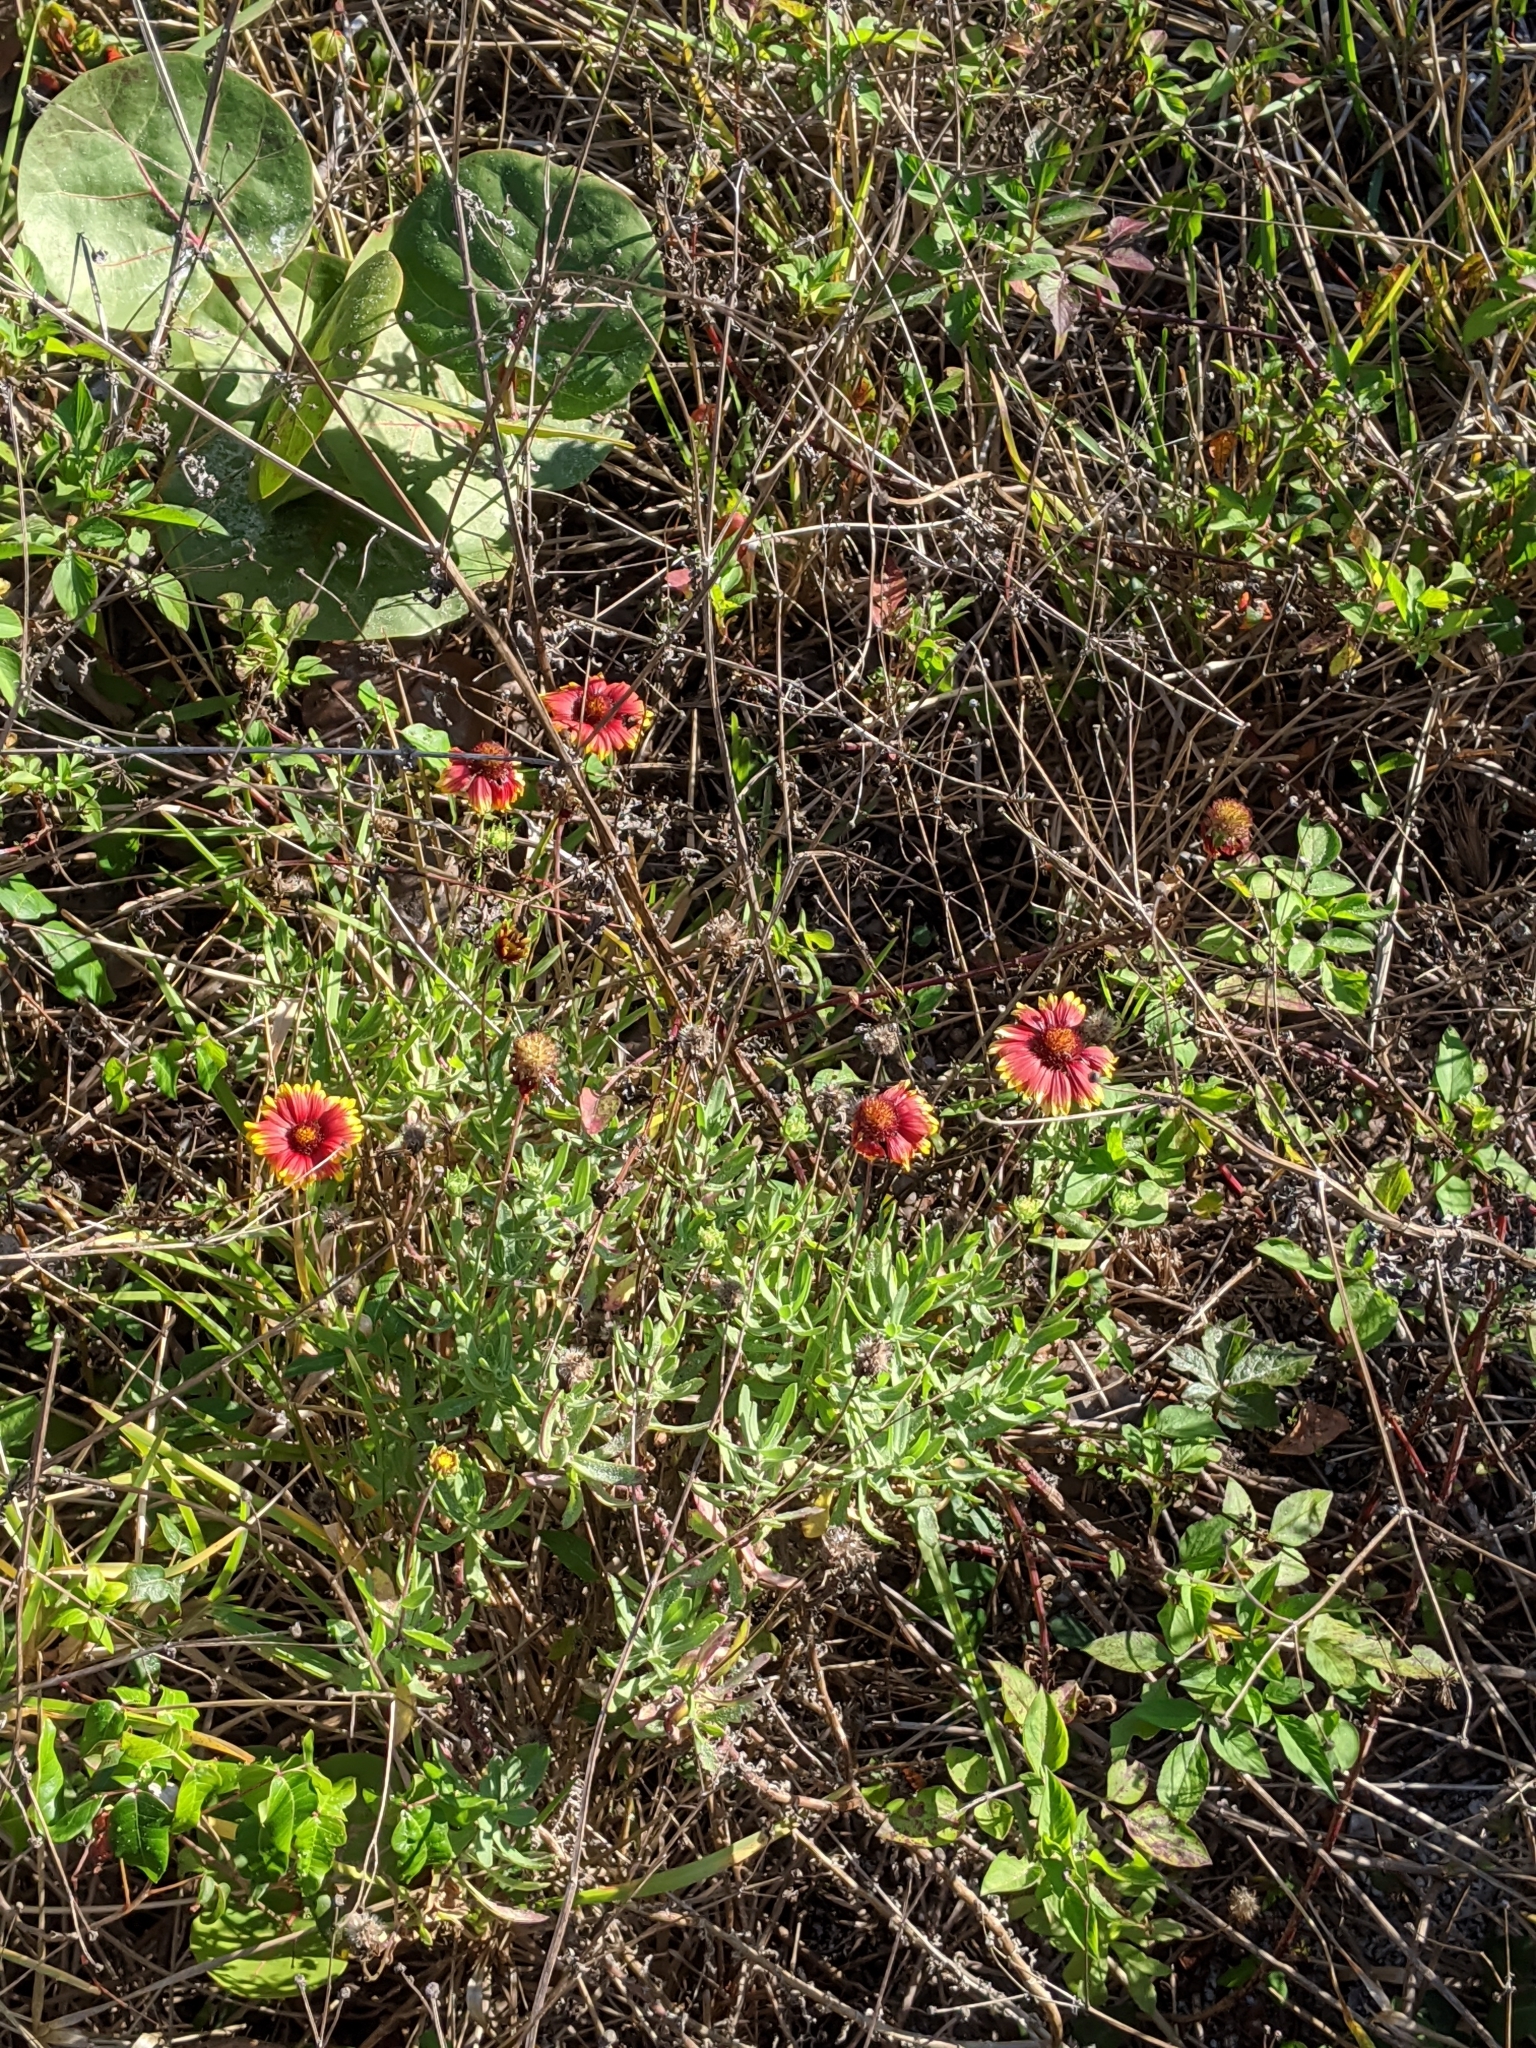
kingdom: Plantae
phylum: Tracheophyta
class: Magnoliopsida
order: Asterales
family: Asteraceae
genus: Gaillardia
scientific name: Gaillardia pulchella
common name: Firewheel
